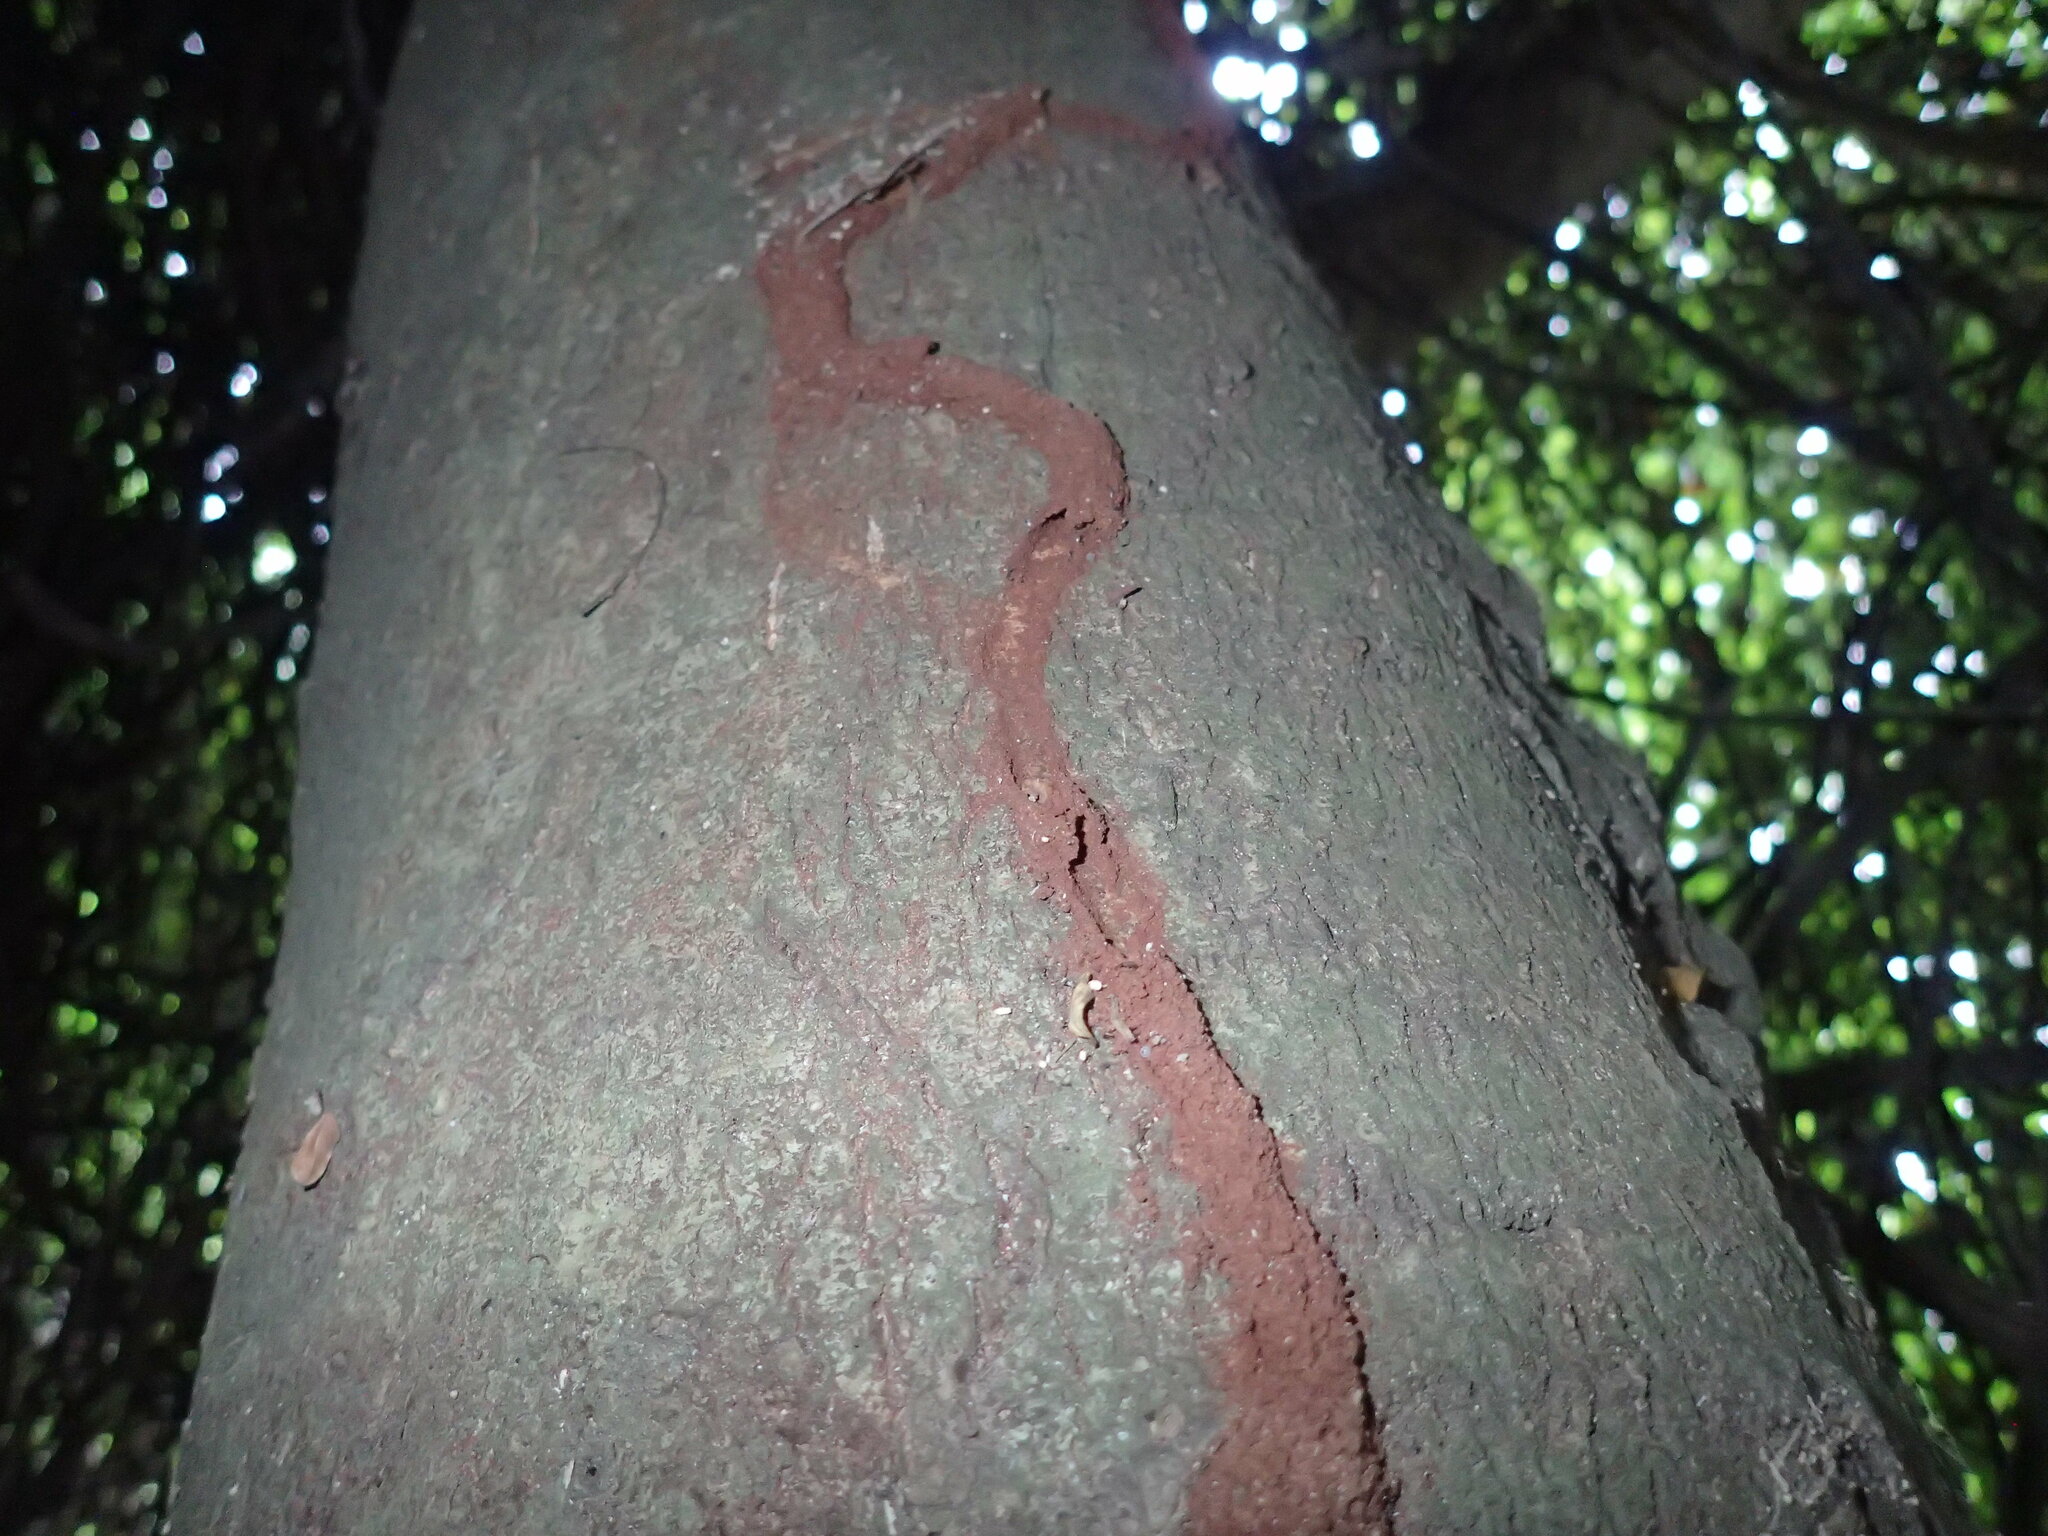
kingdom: Animalia
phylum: Arthropoda
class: Insecta
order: Blattodea
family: Rhinotermitidae
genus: Schedorhinotermes
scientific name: Schedorhinotermes lamanianus
